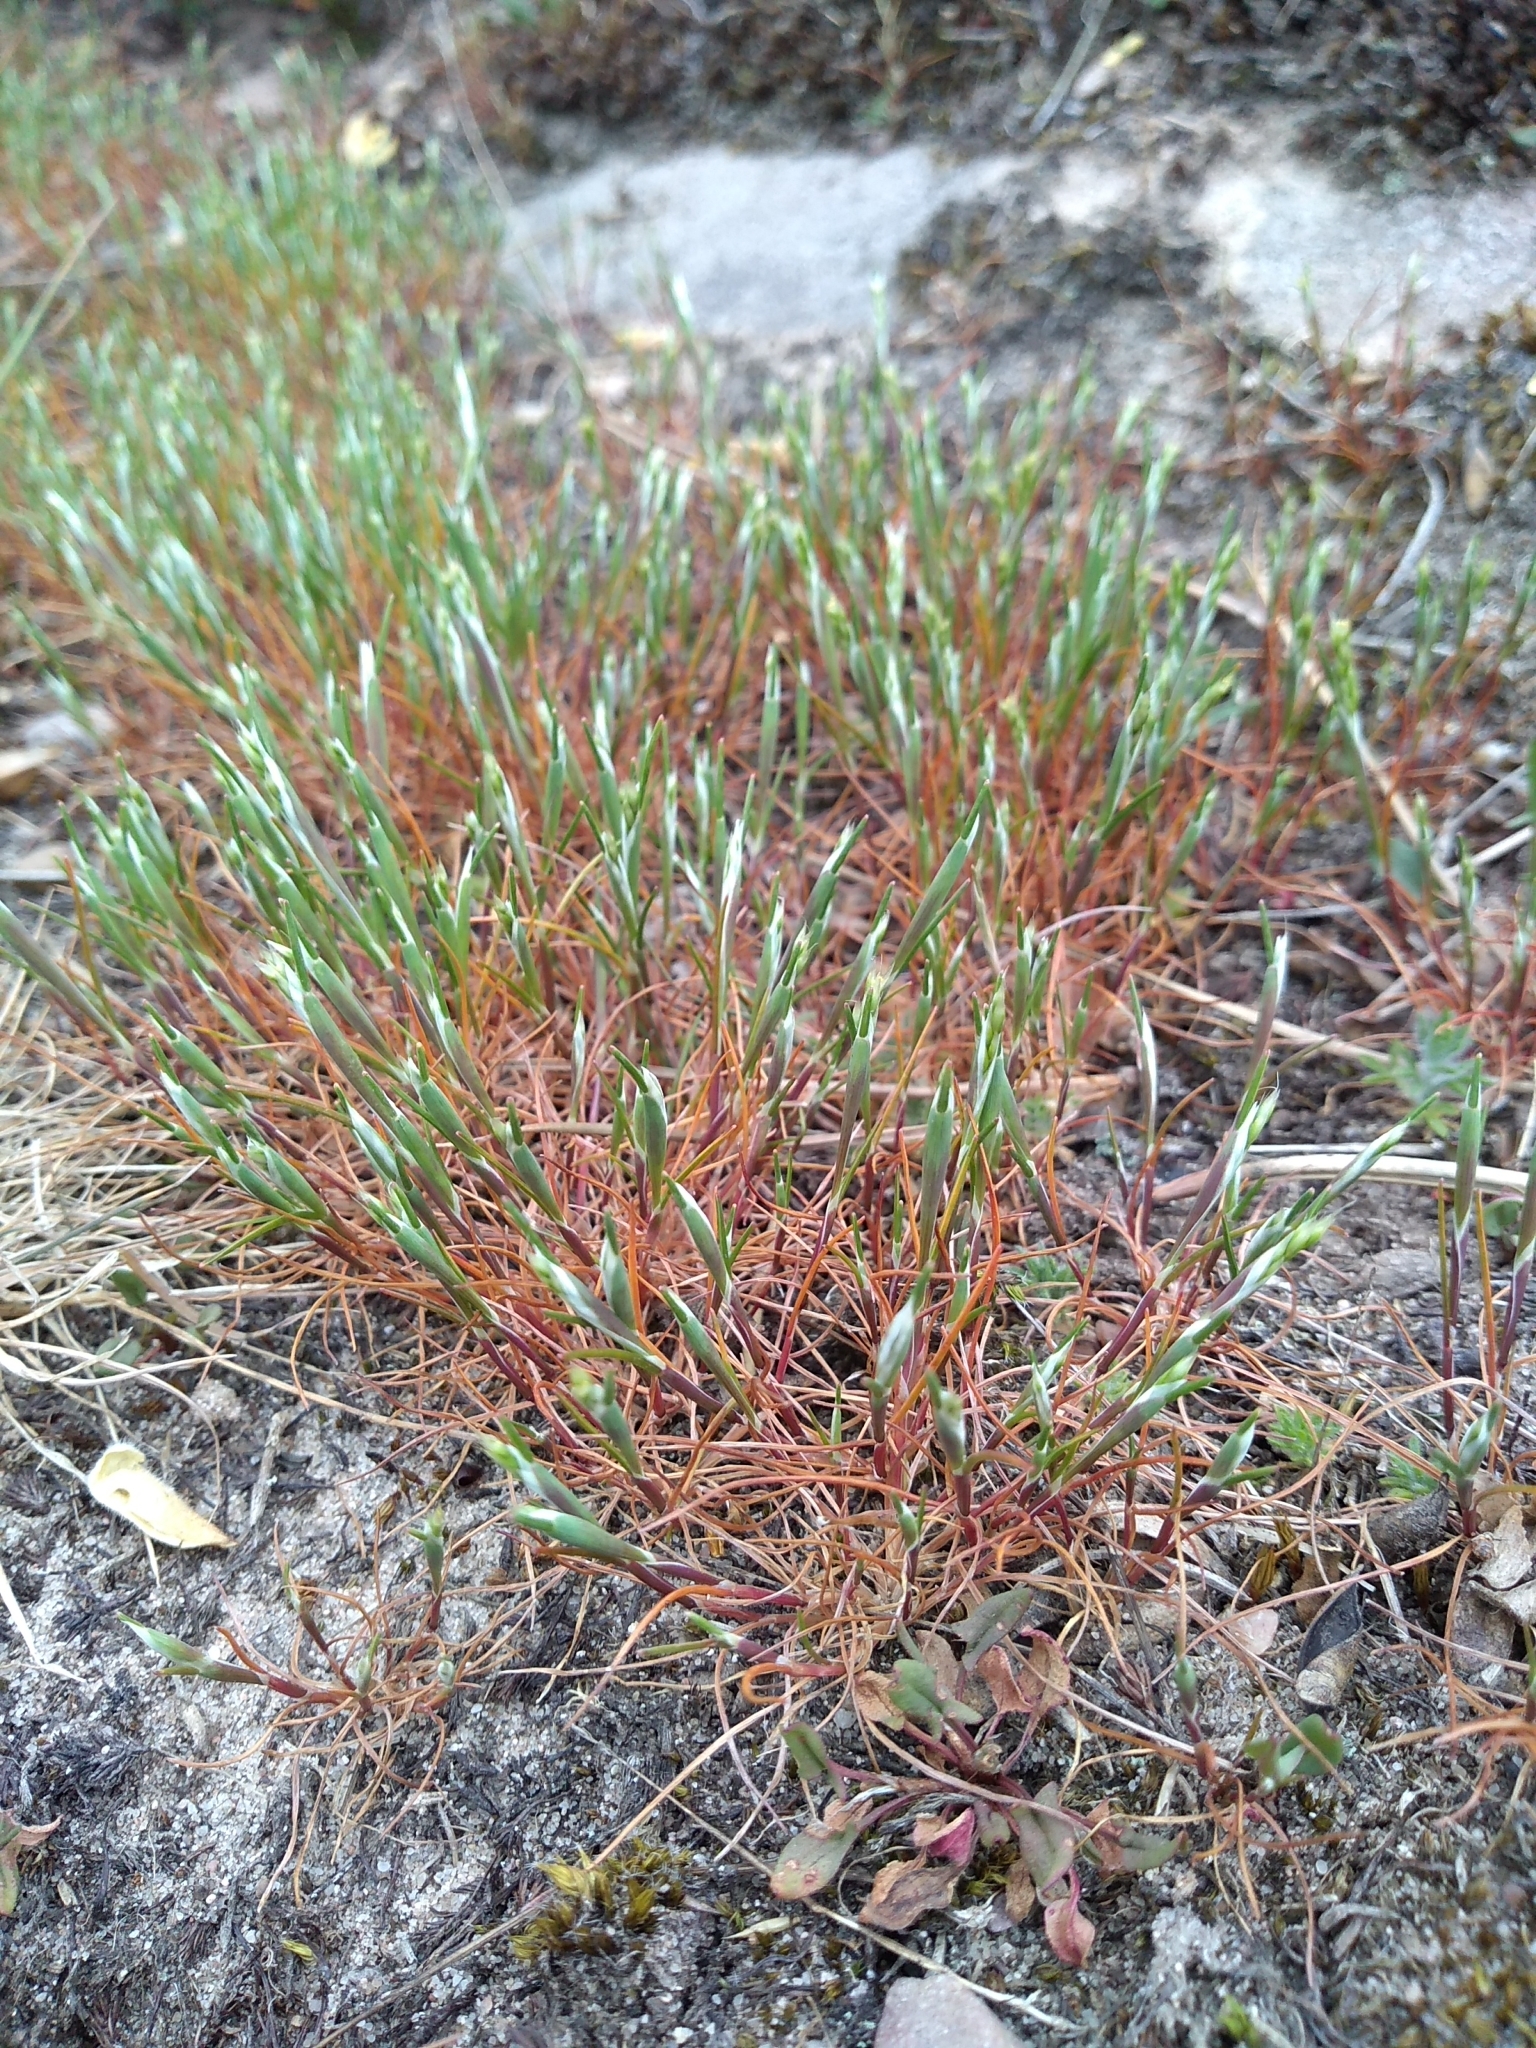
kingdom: Plantae
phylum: Tracheophyta
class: Liliopsida
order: Poales
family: Poaceae
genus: Aira
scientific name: Aira praecox
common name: Early hair-grass
